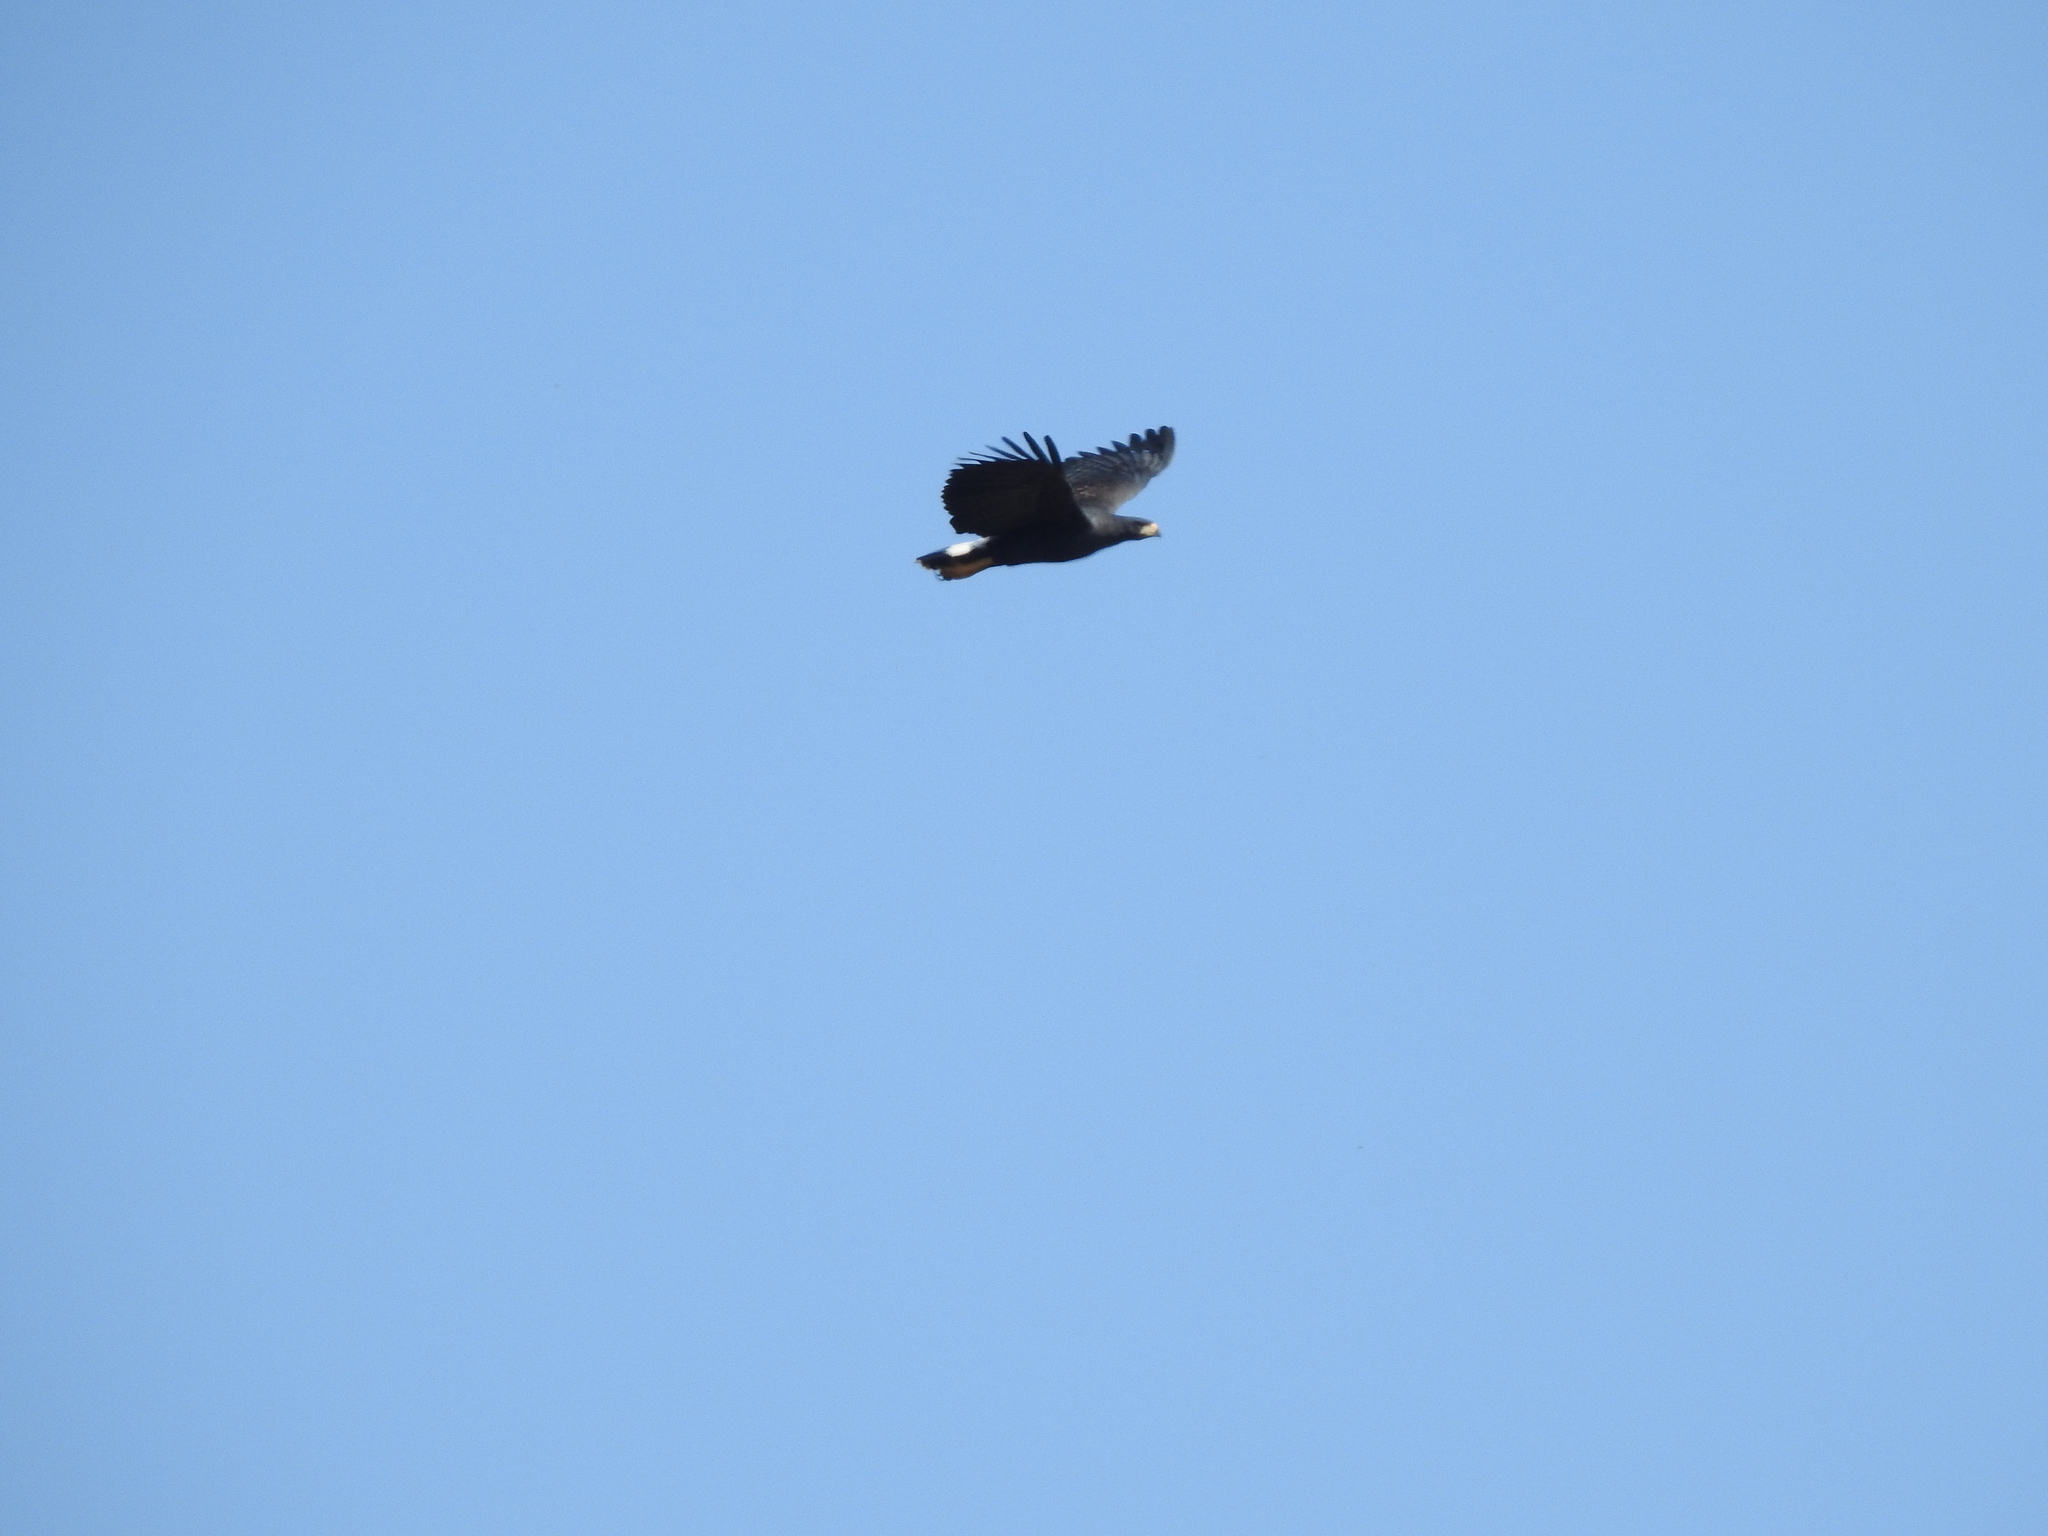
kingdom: Animalia
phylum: Chordata
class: Aves
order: Accipitriformes
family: Accipitridae
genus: Buteogallus
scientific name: Buteogallus urubitinga
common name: Great black hawk
